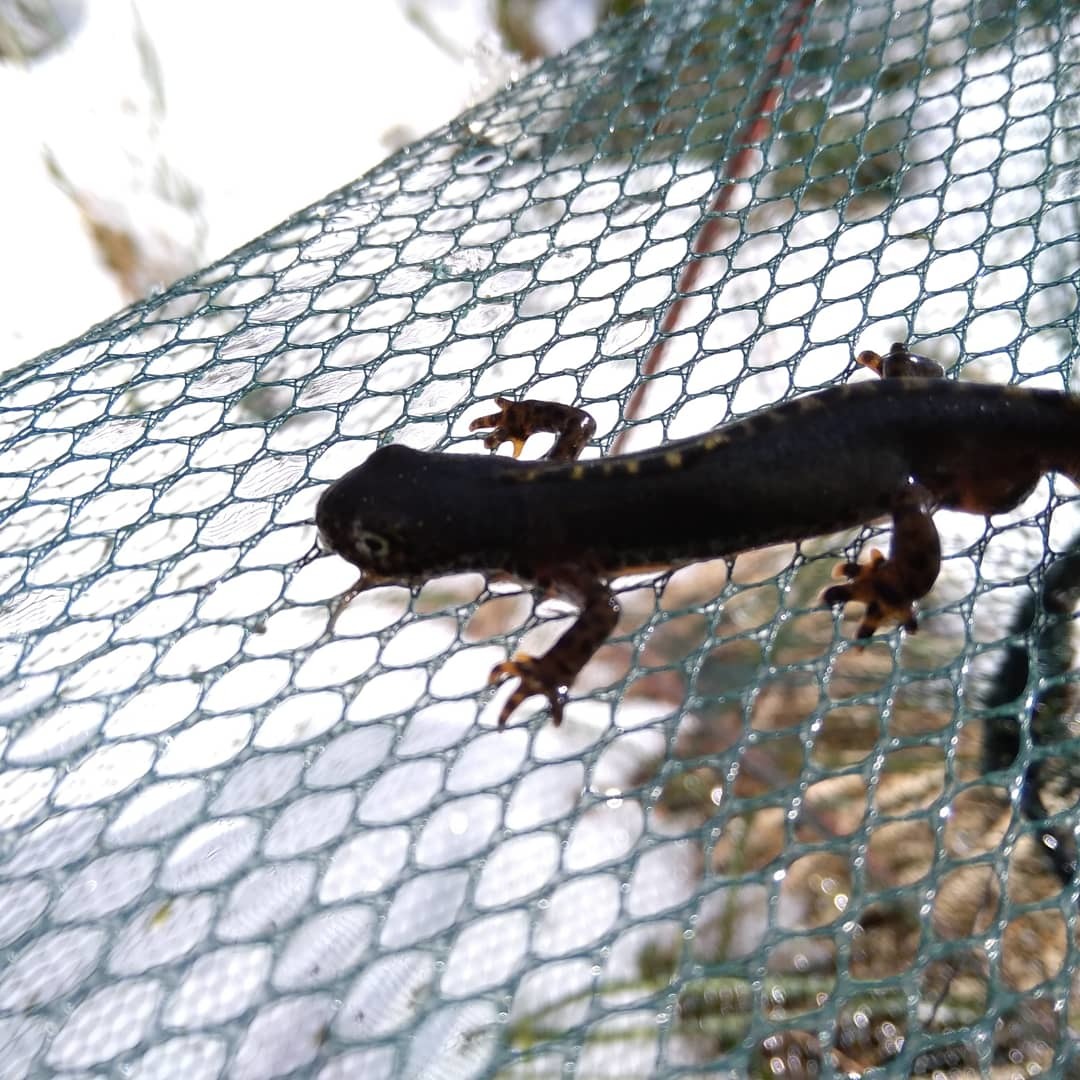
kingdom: Animalia
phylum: Chordata
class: Amphibia
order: Caudata
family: Salamandridae
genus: Ichthyosaura
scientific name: Ichthyosaura alpestris
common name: Alpine newt
